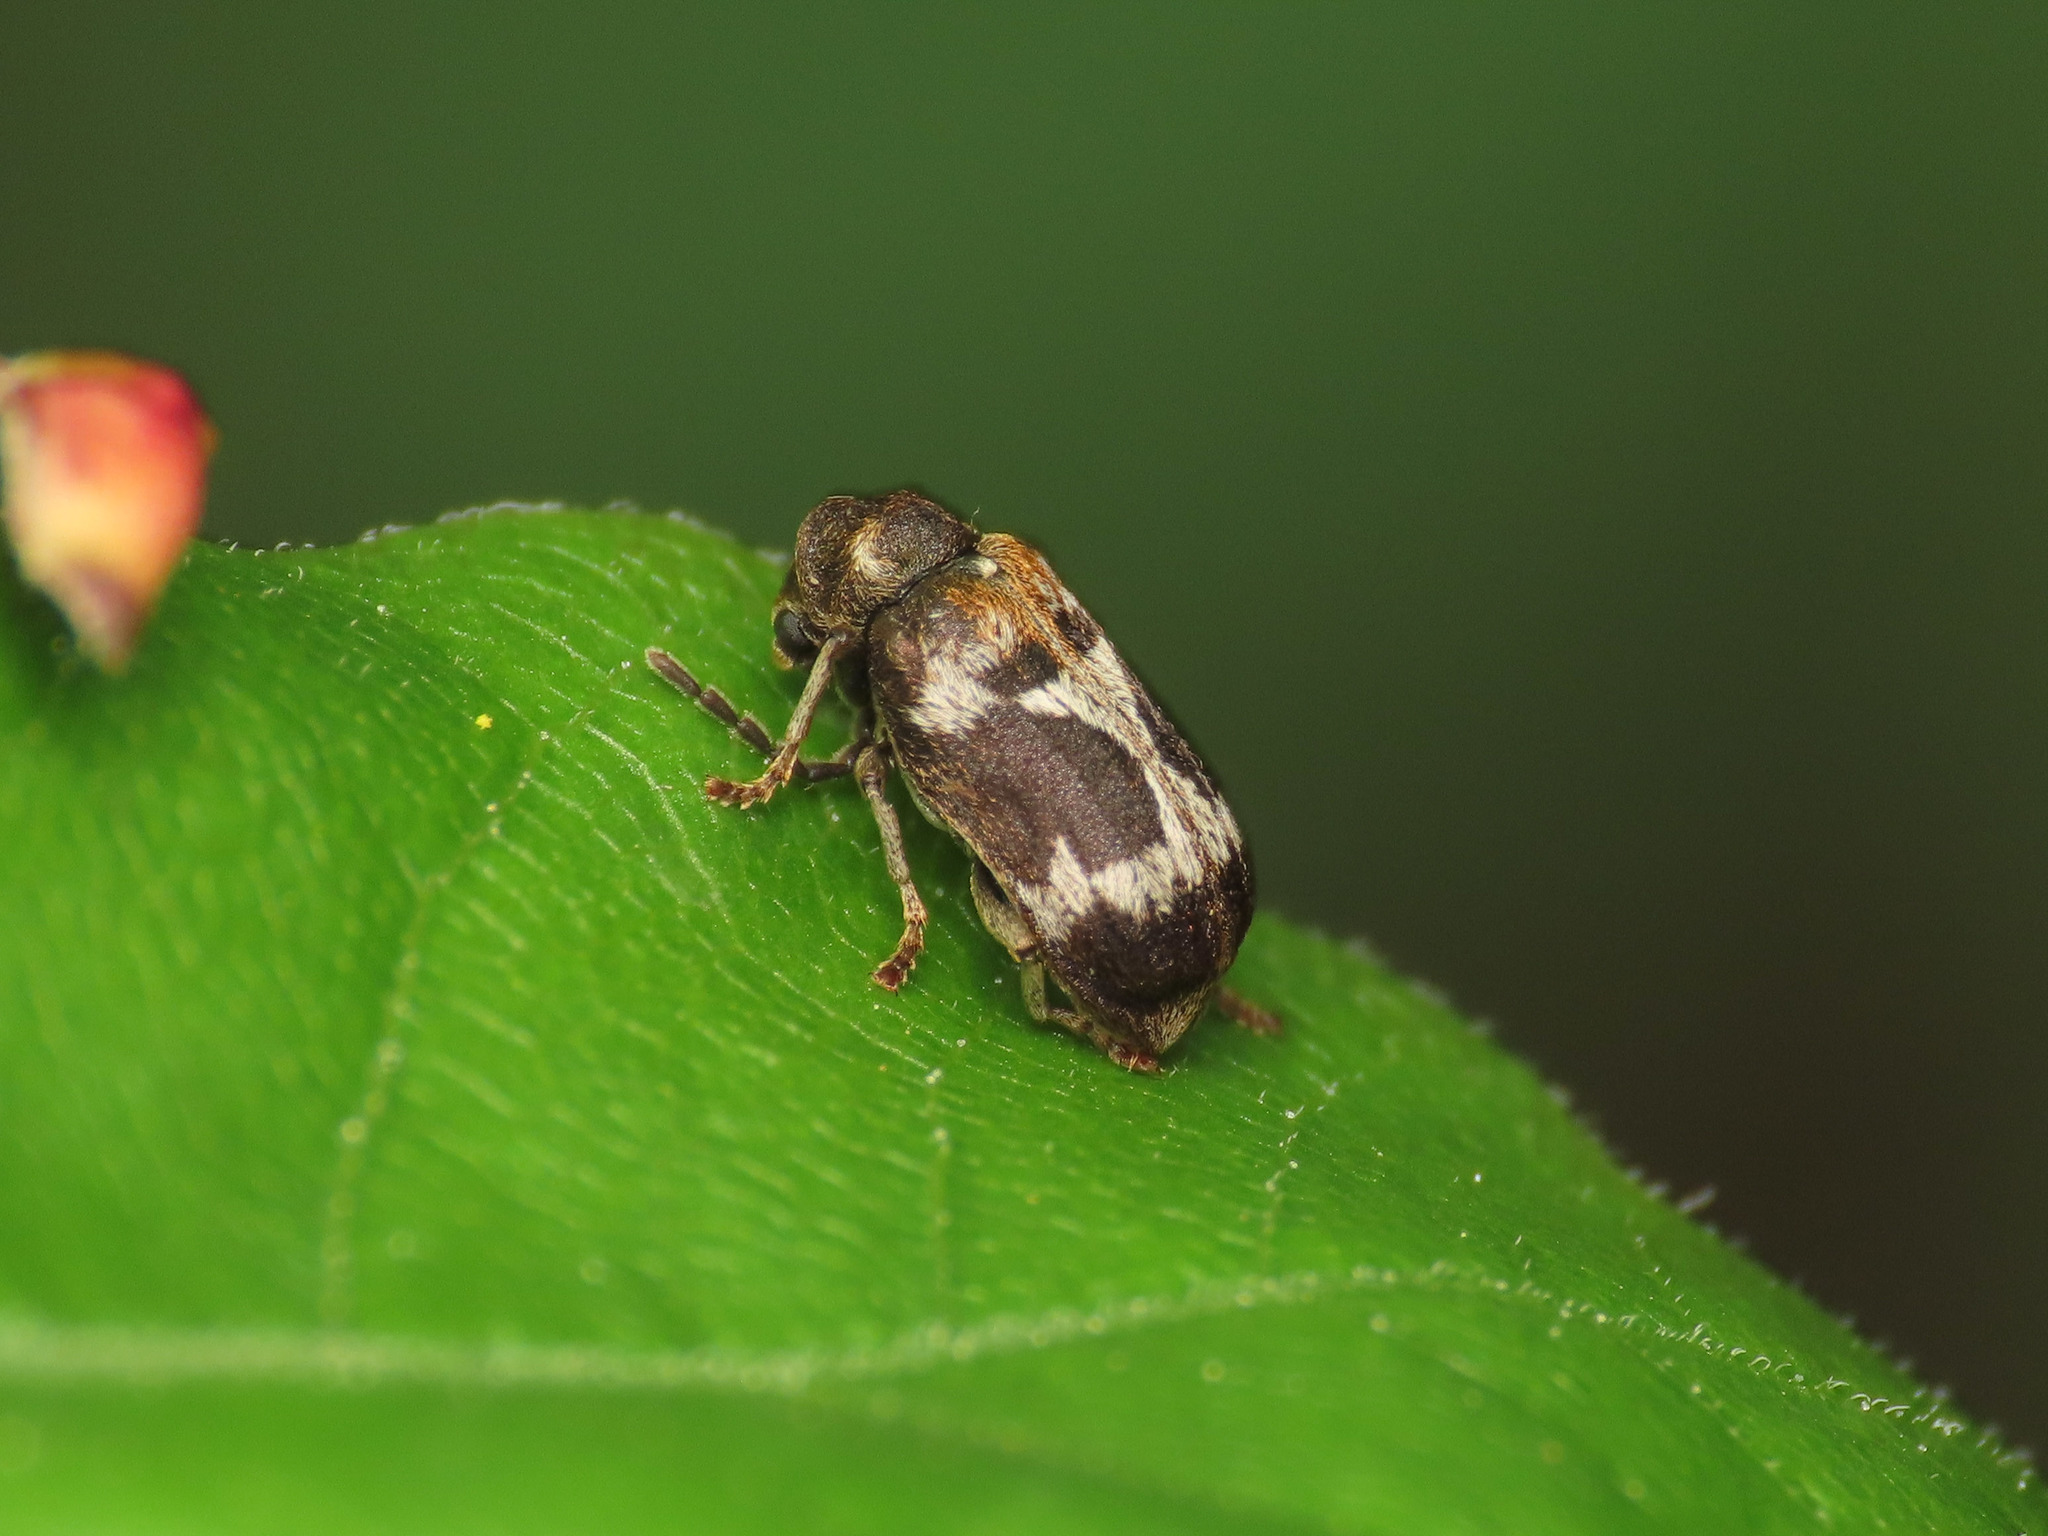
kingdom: Animalia
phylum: Arthropoda
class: Insecta
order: Coleoptera
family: Anobiidae
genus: Ptinomorphus
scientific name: Ptinomorphus regalis
